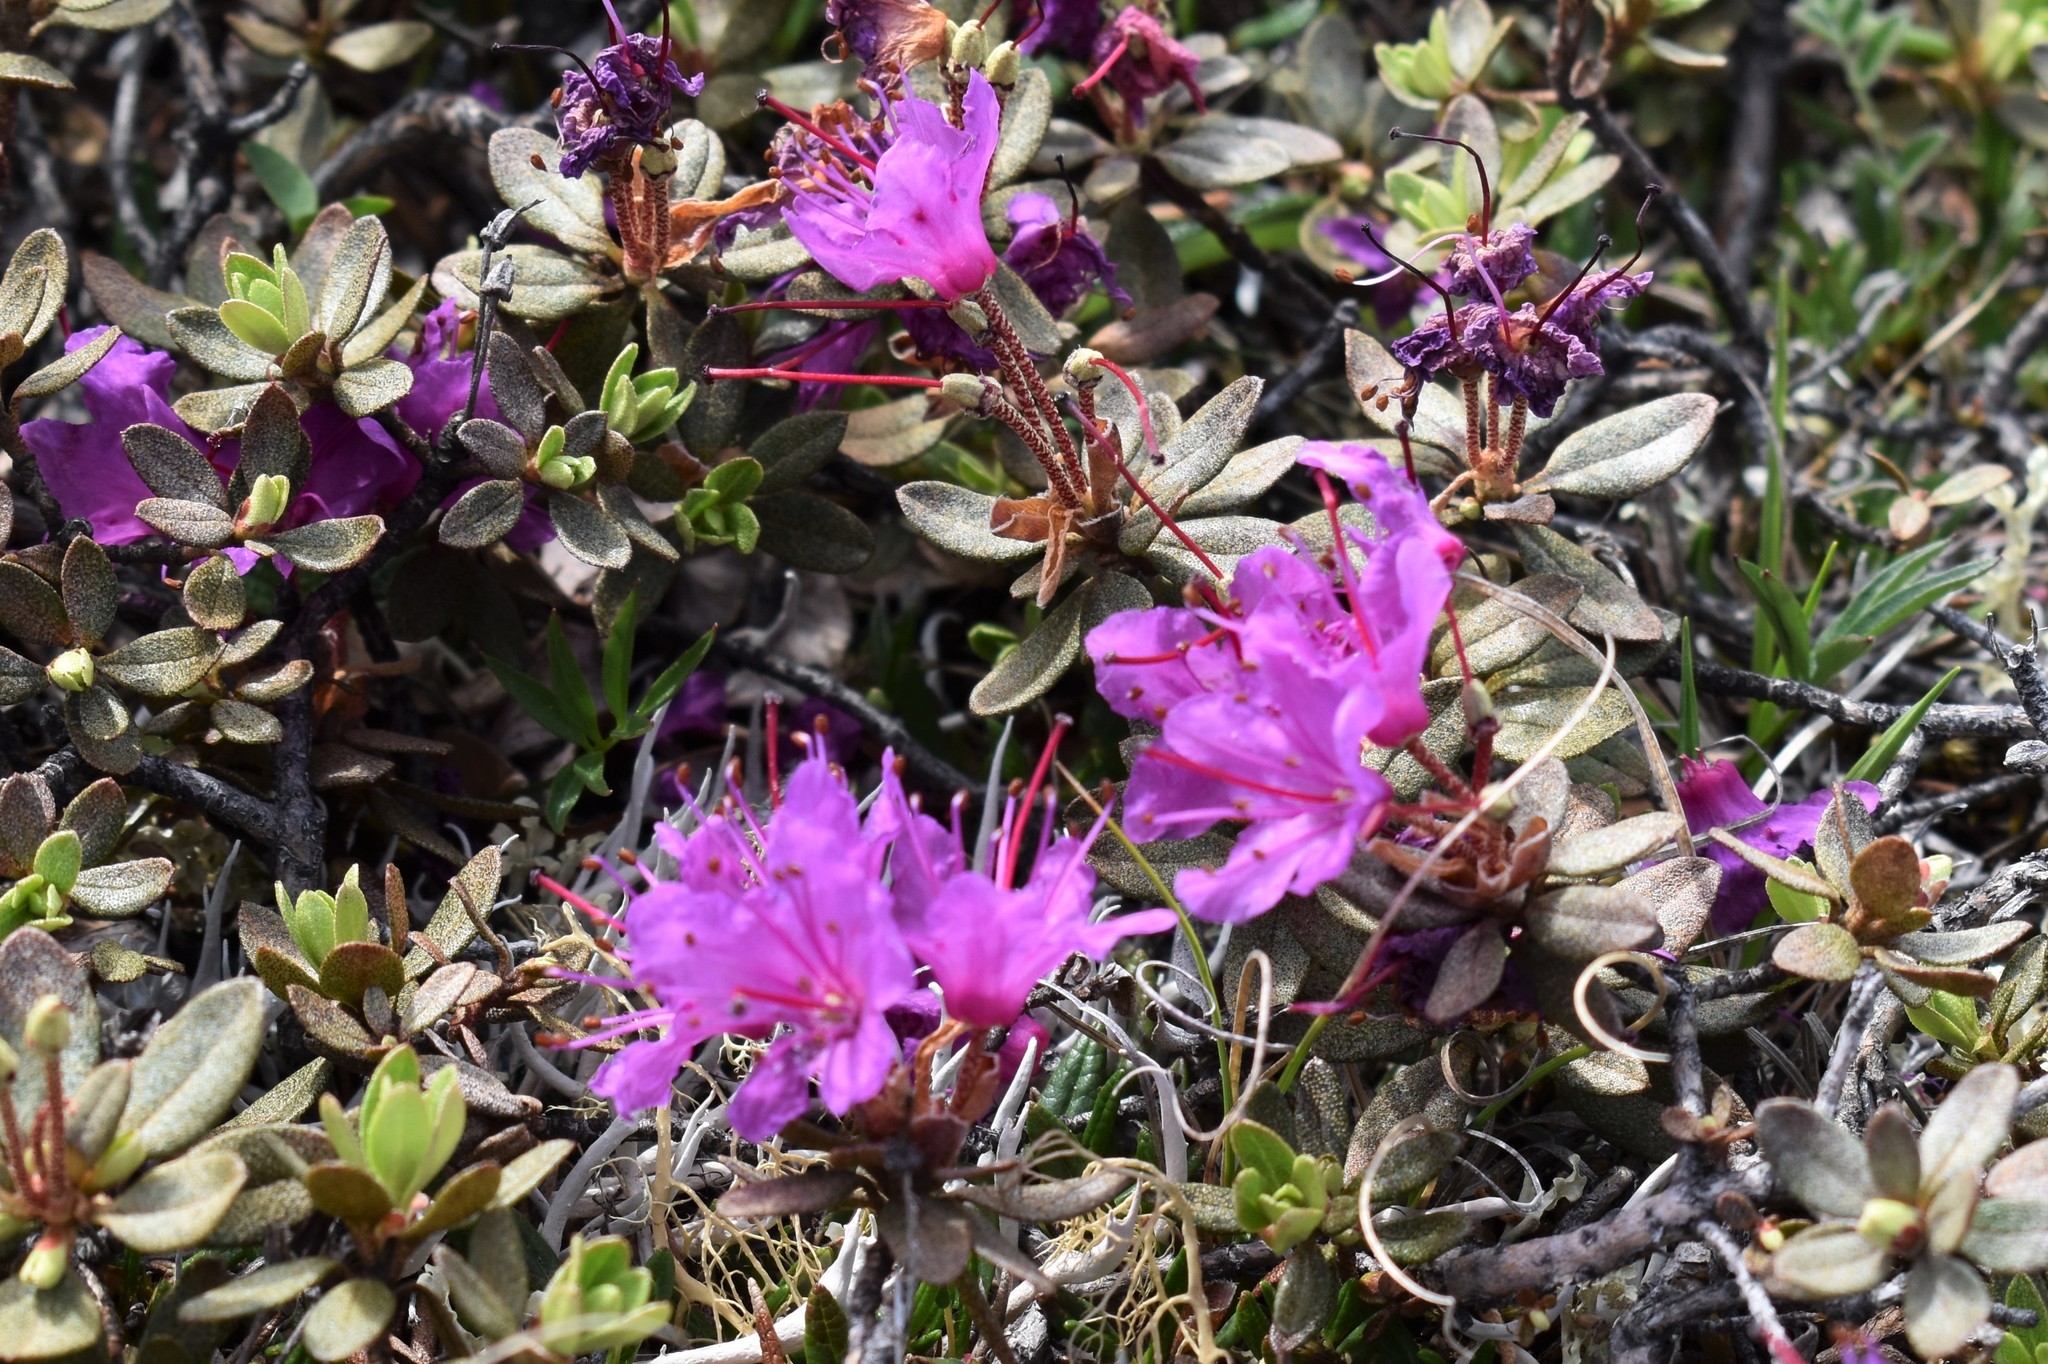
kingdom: Plantae
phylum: Tracheophyta
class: Magnoliopsida
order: Ericales
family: Ericaceae
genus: Rhododendron
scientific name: Rhododendron lapponicum
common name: Lapland rhododendron
